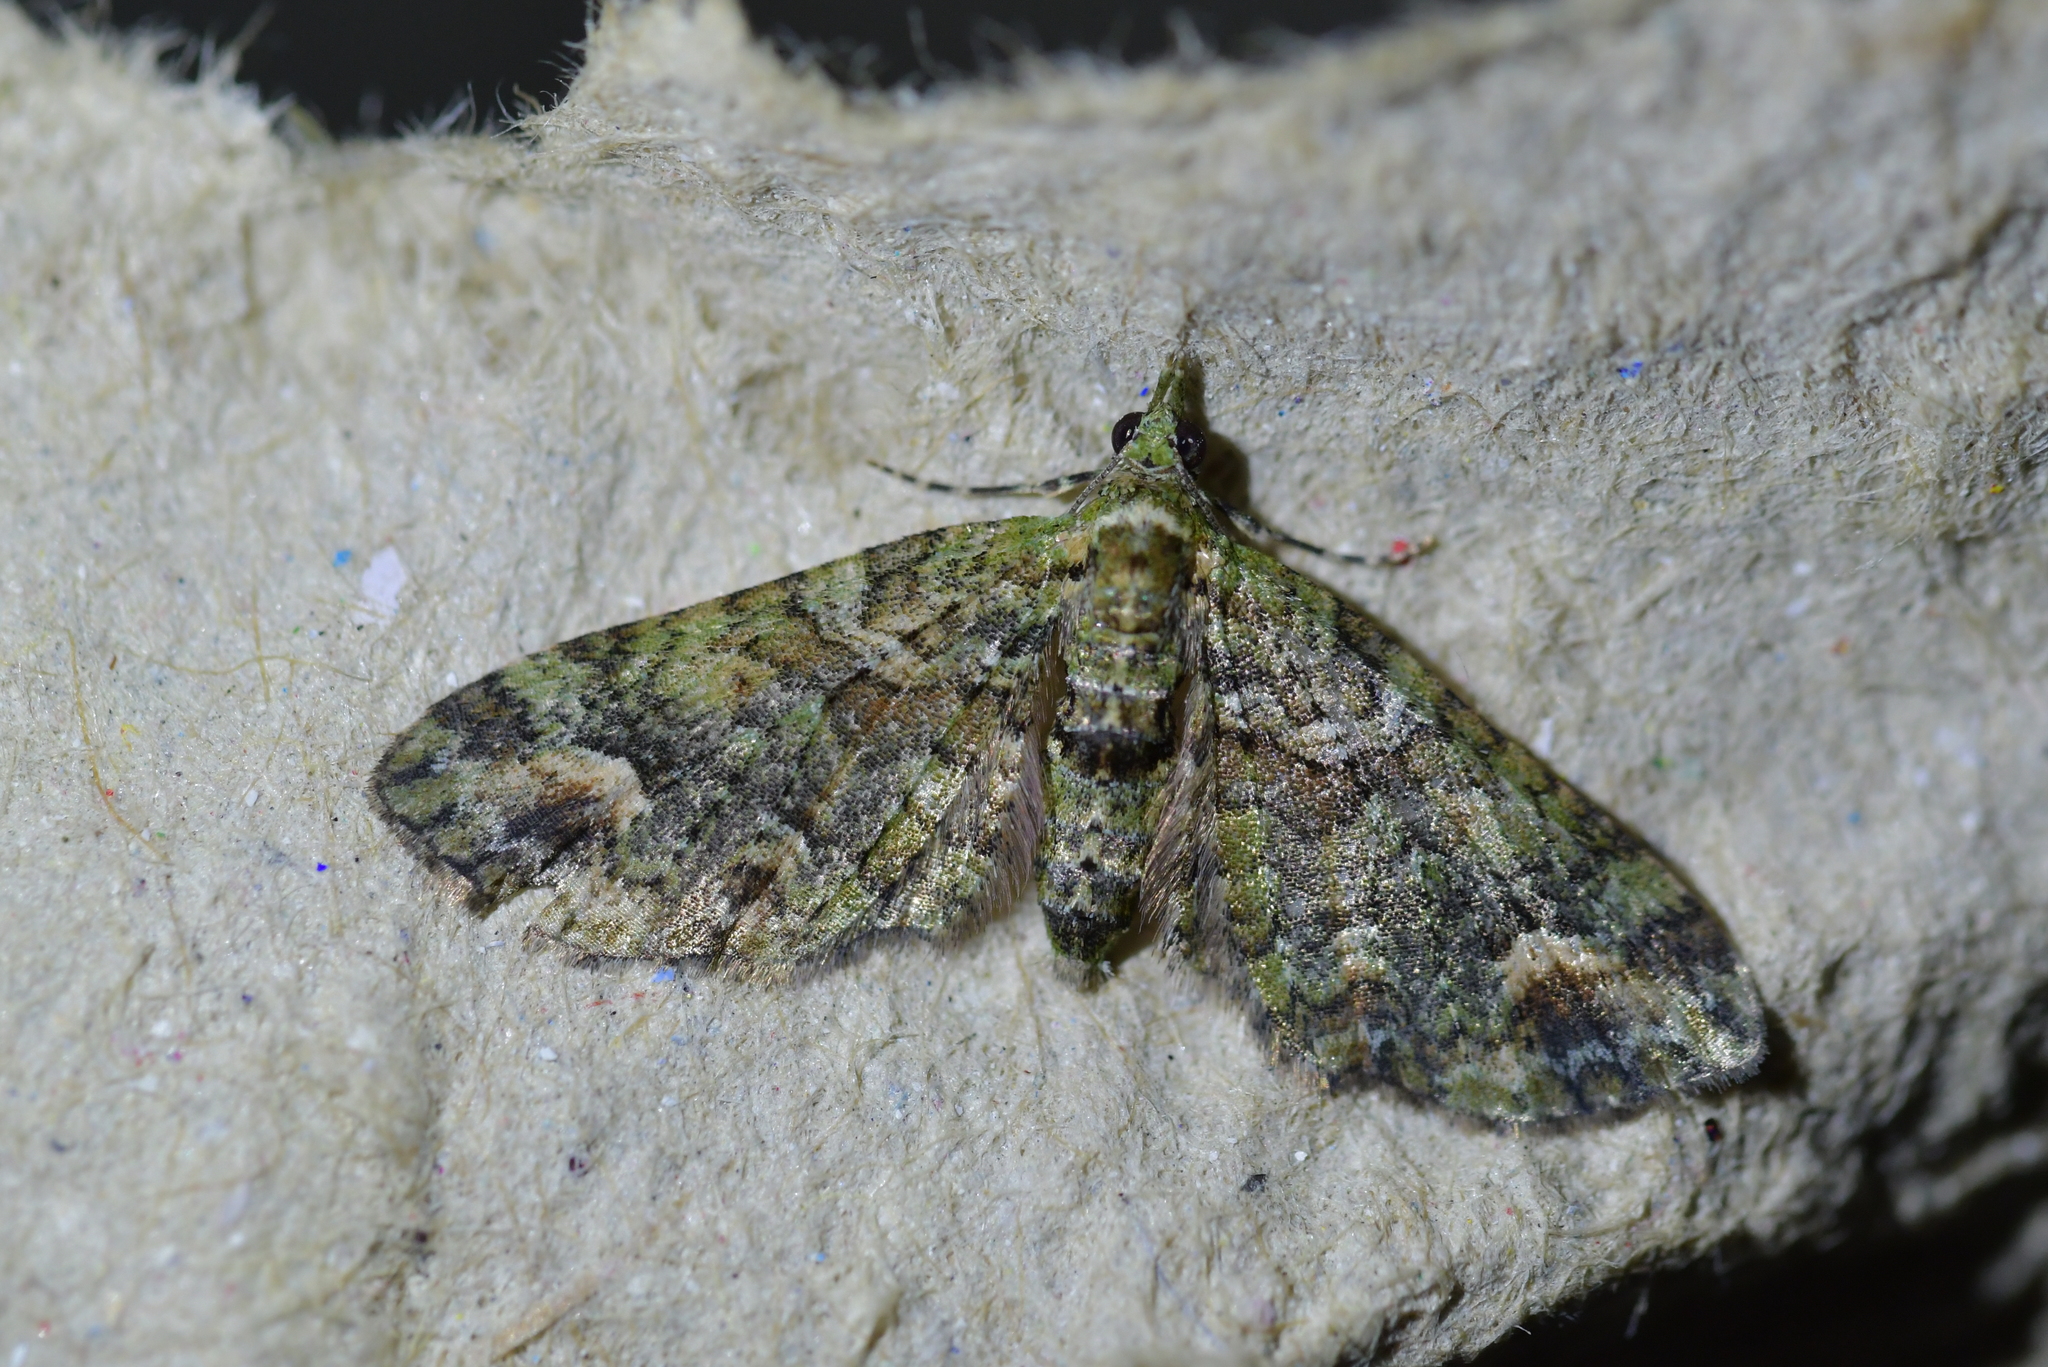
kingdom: Animalia
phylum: Arthropoda
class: Insecta
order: Lepidoptera
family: Geometridae
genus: Idaea
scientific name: Idaea mutanda
